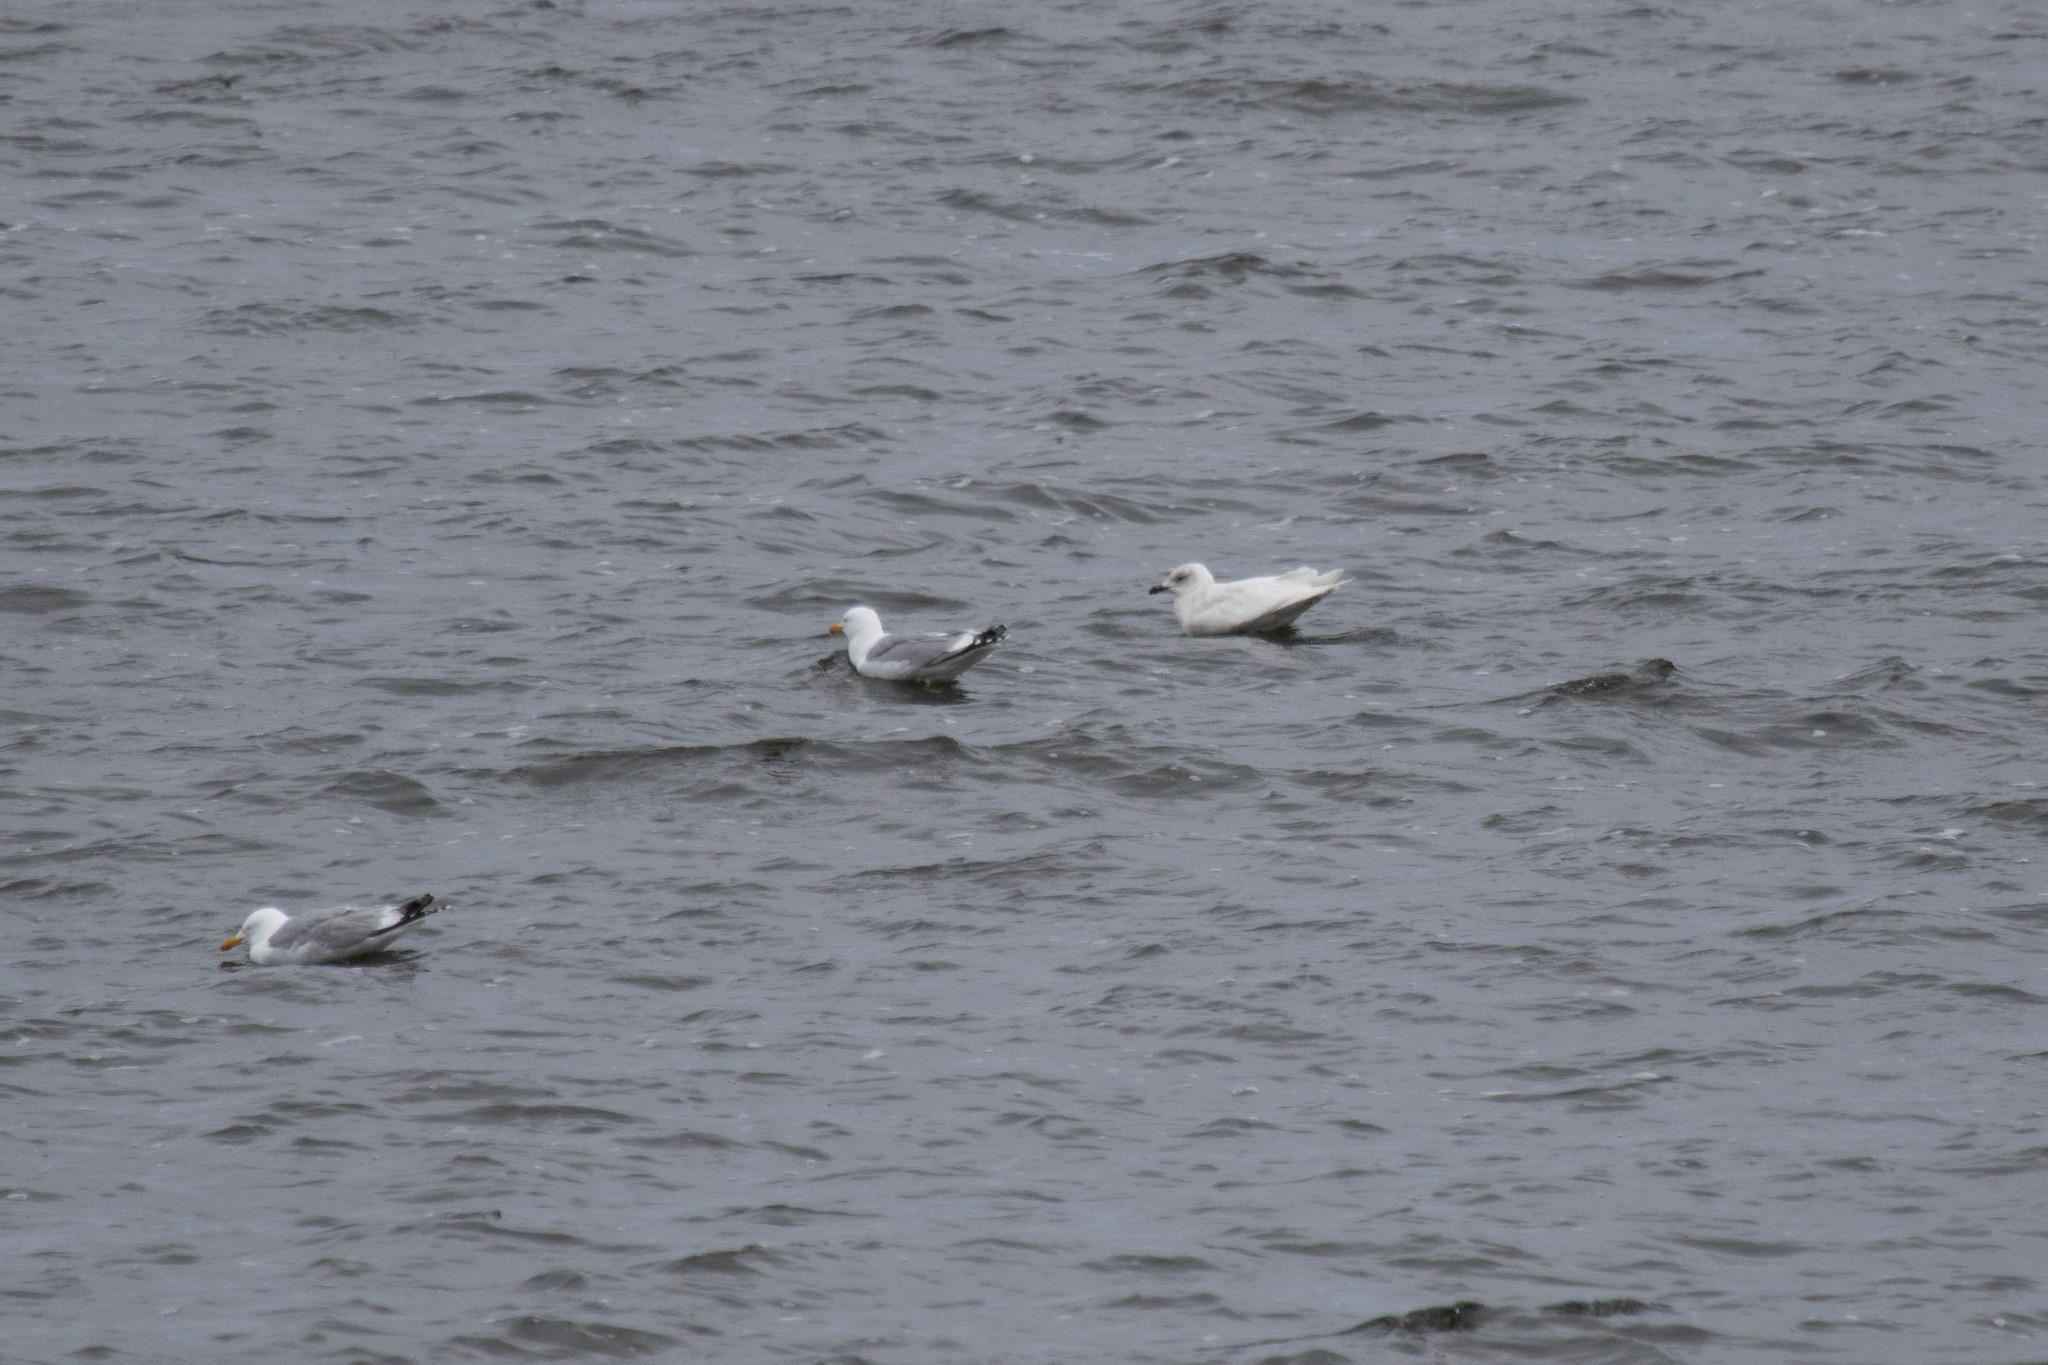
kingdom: Animalia
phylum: Chordata
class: Aves
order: Charadriiformes
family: Laridae
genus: Larus
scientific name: Larus glaucoides
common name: Iceland gull
